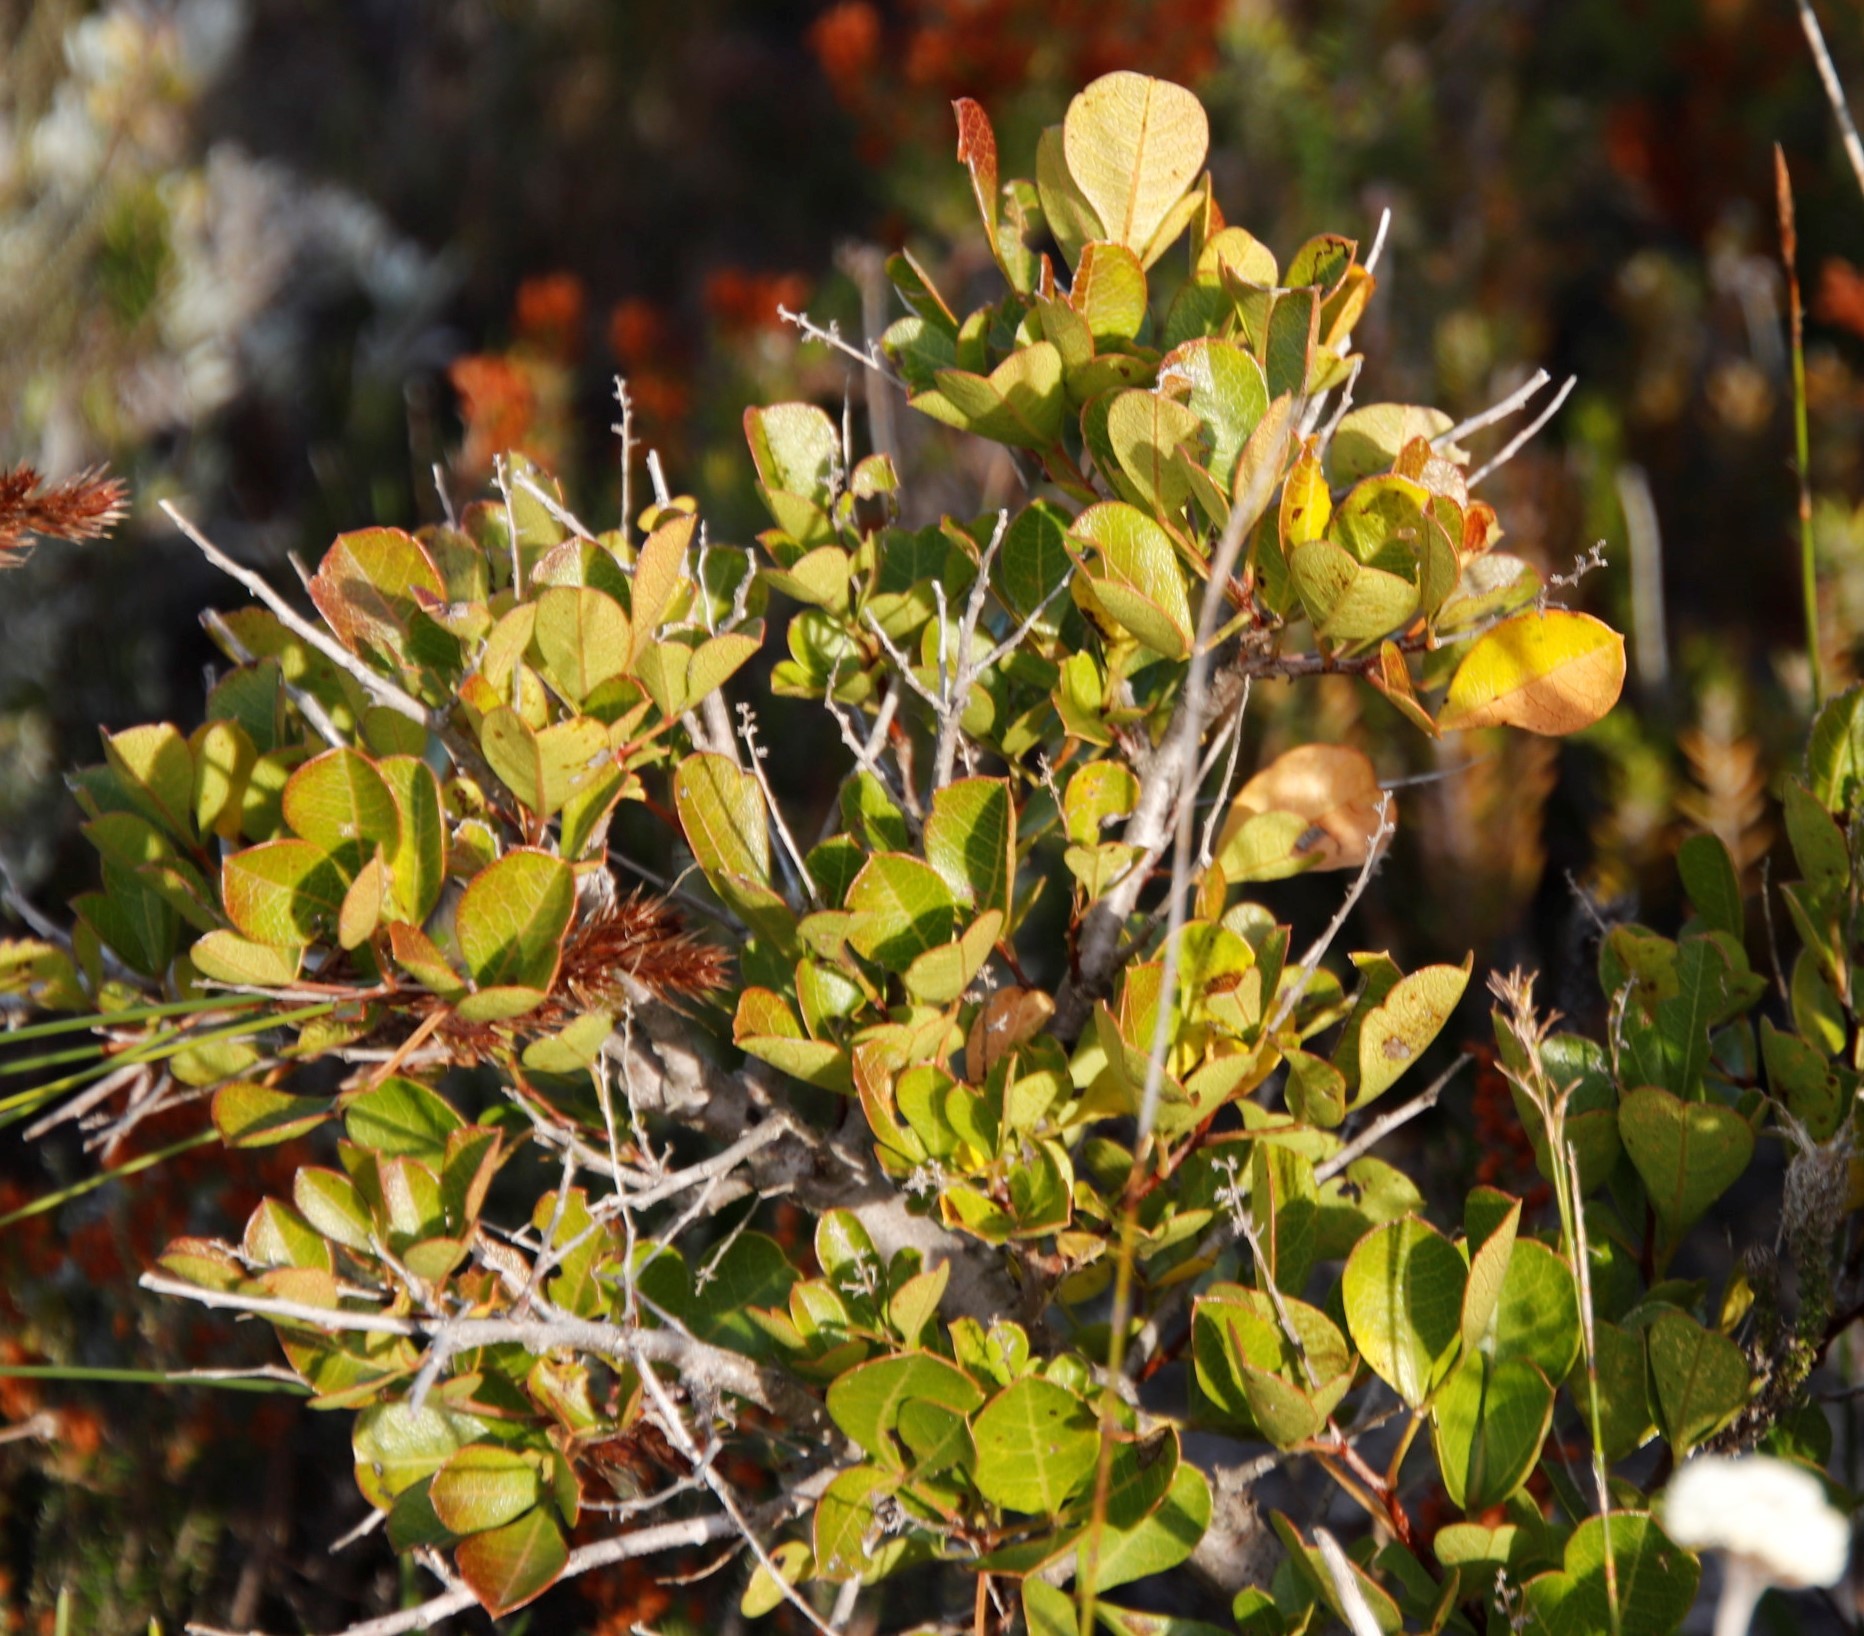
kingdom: Plantae
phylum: Tracheophyta
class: Magnoliopsida
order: Sapindales
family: Anacardiaceae
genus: Searsia
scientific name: Searsia laevigata
